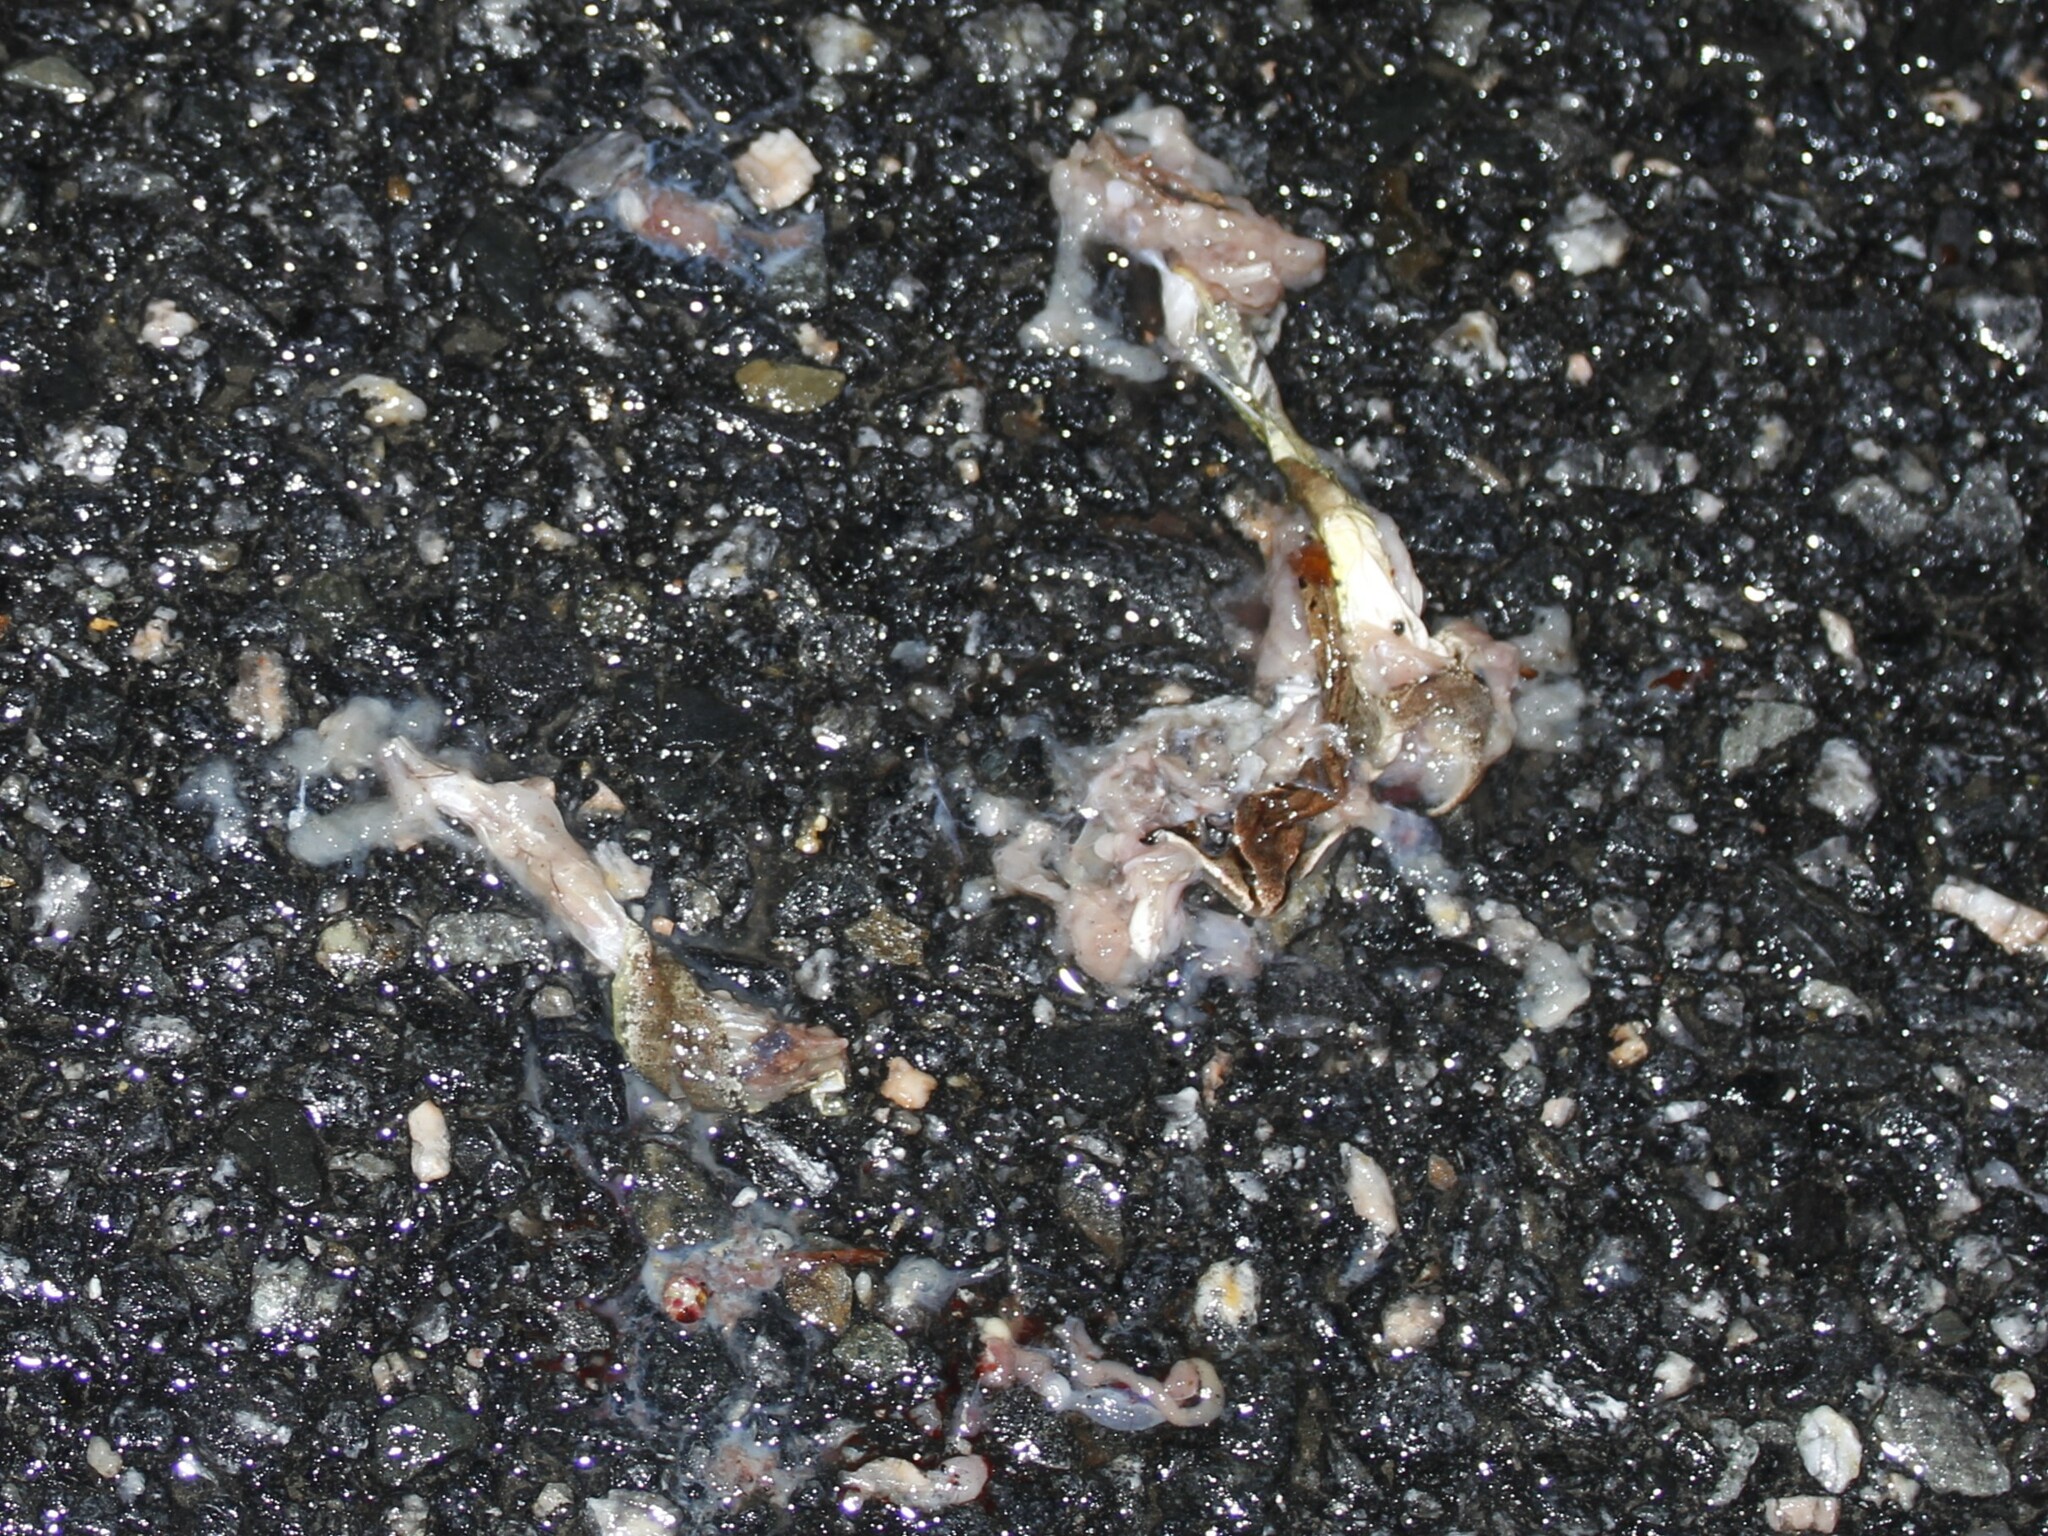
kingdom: Animalia
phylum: Chordata
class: Amphibia
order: Anura
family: Ranidae
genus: Lithobates
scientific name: Lithobates sylvaticus
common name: Wood frog
